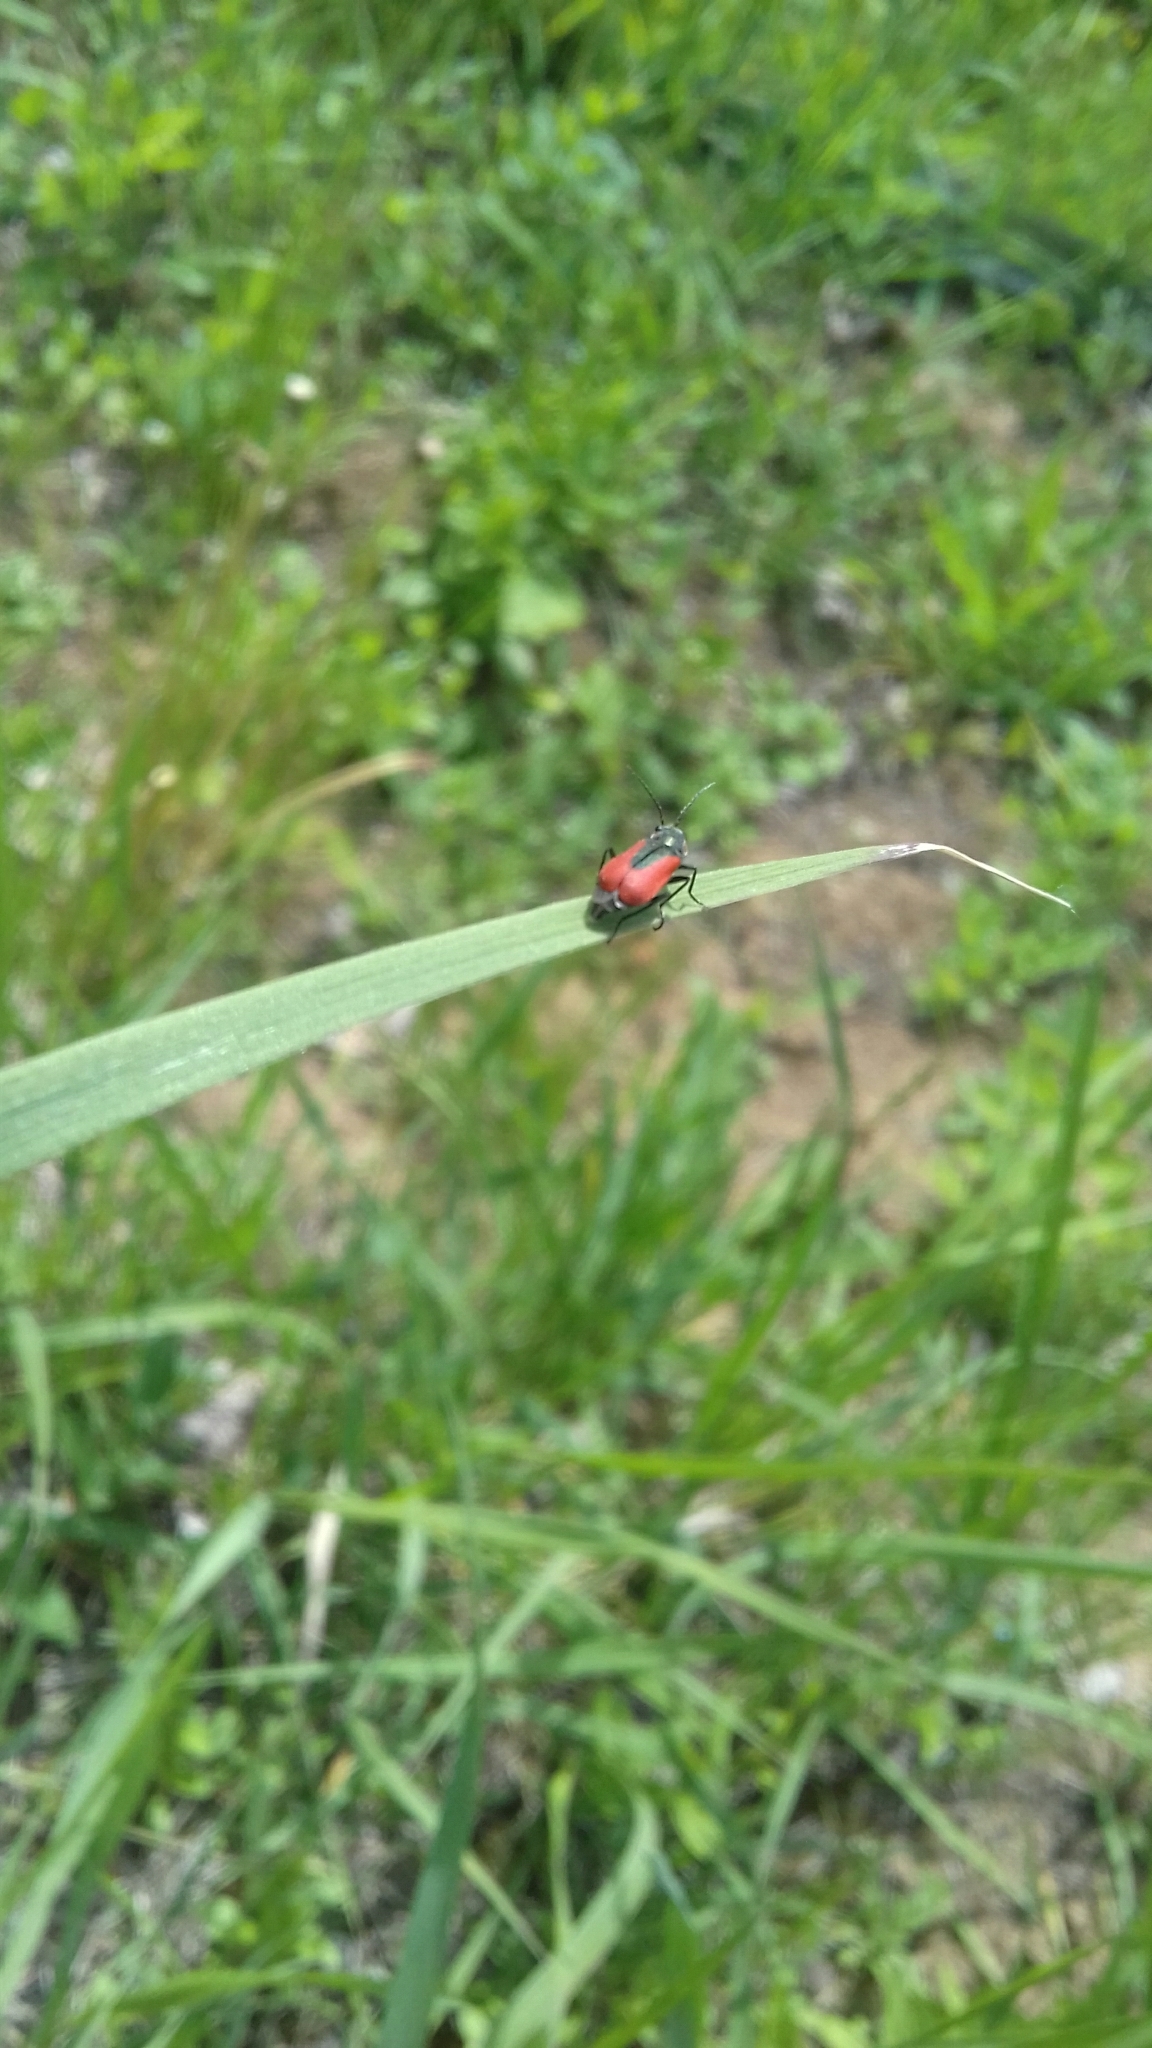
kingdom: Animalia
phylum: Arthropoda
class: Insecta
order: Coleoptera
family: Melyridae
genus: Malachius
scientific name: Malachius aeneus
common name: Scarlet malachite beetle
